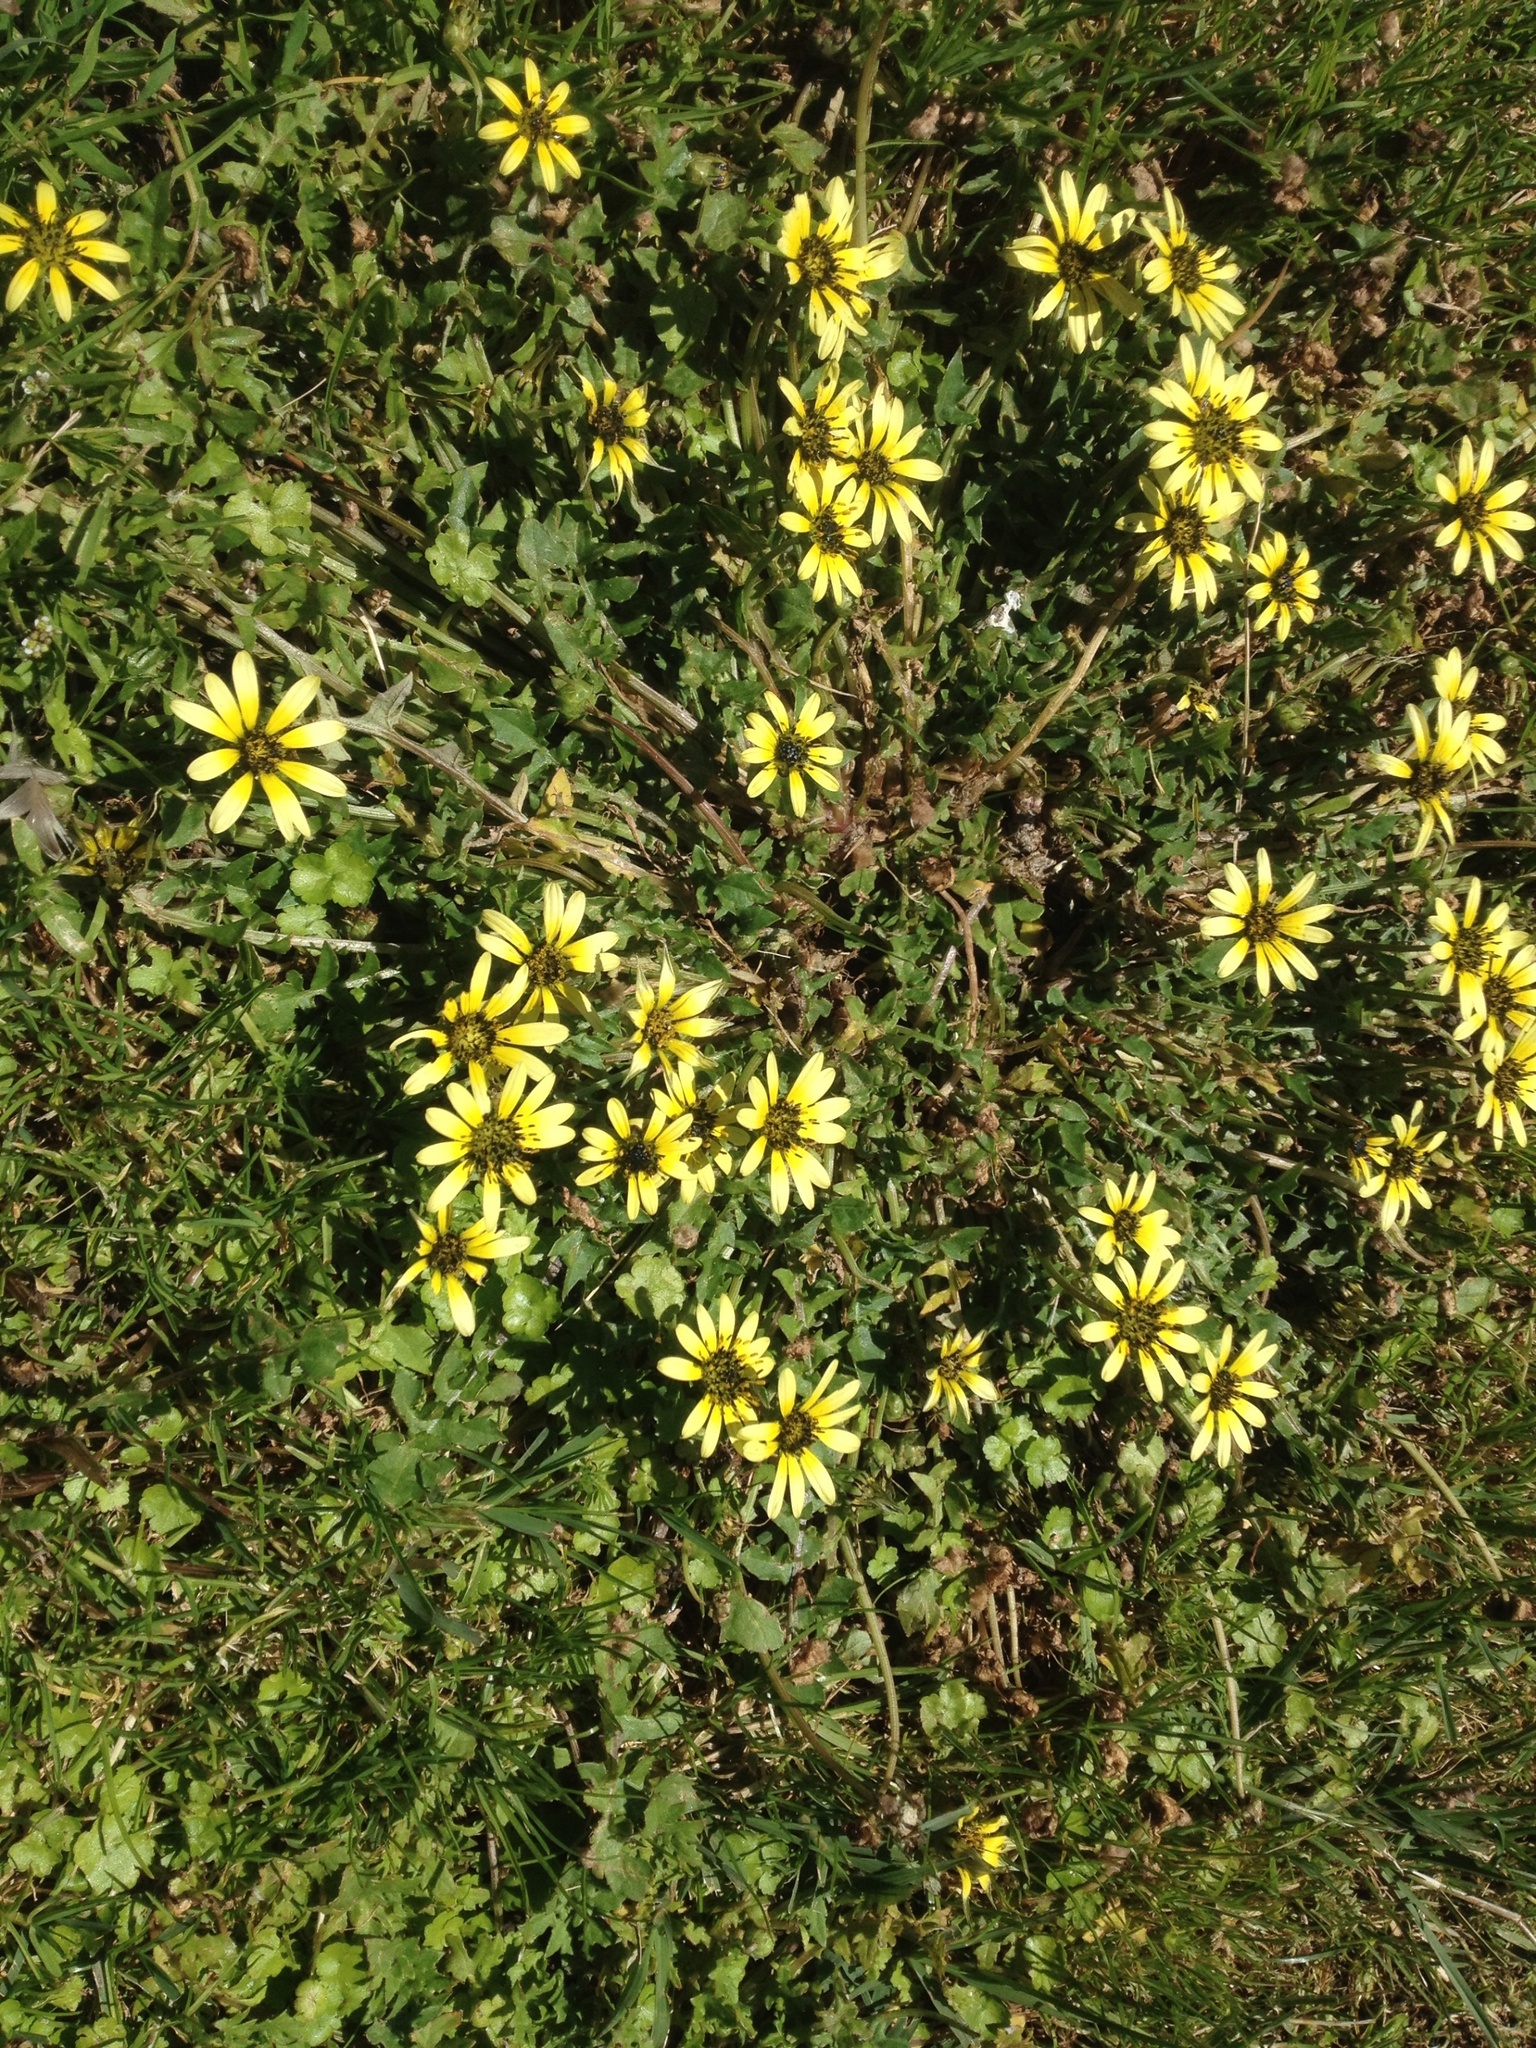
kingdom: Plantae
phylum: Tracheophyta
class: Magnoliopsida
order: Asterales
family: Asteraceae
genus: Arctotheca
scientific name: Arctotheca calendula
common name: Capeweed
